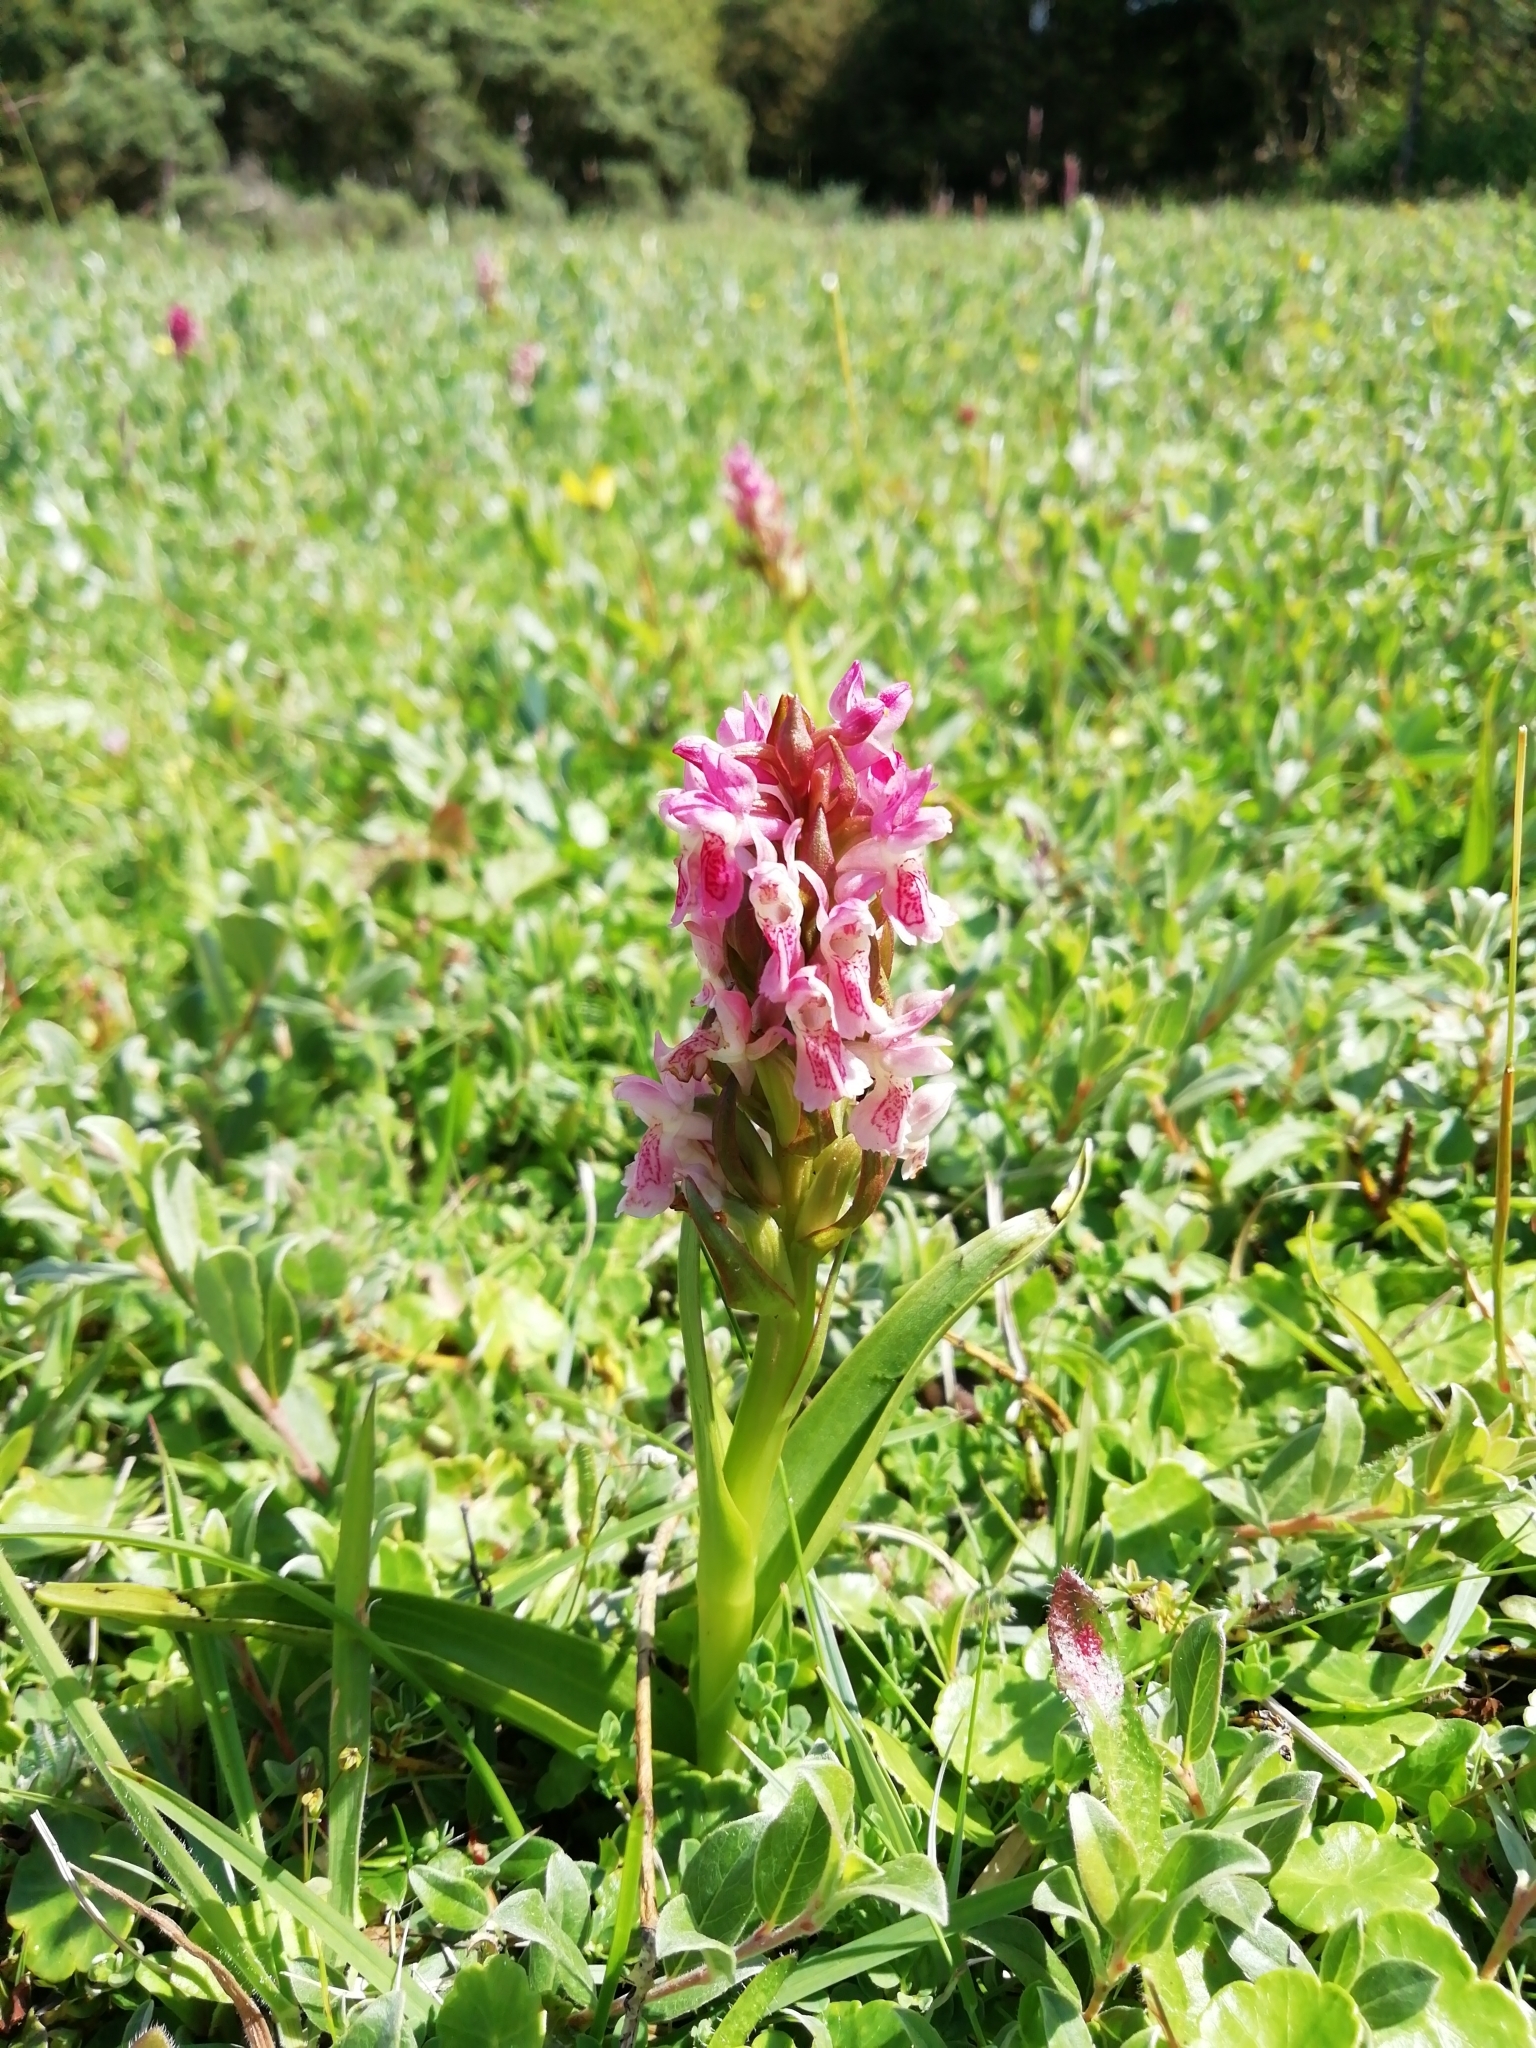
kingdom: Plantae
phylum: Tracheophyta
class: Liliopsida
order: Asparagales
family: Orchidaceae
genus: Dactylorhiza
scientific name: Dactylorhiza incarnata
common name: Early marsh-orchid
